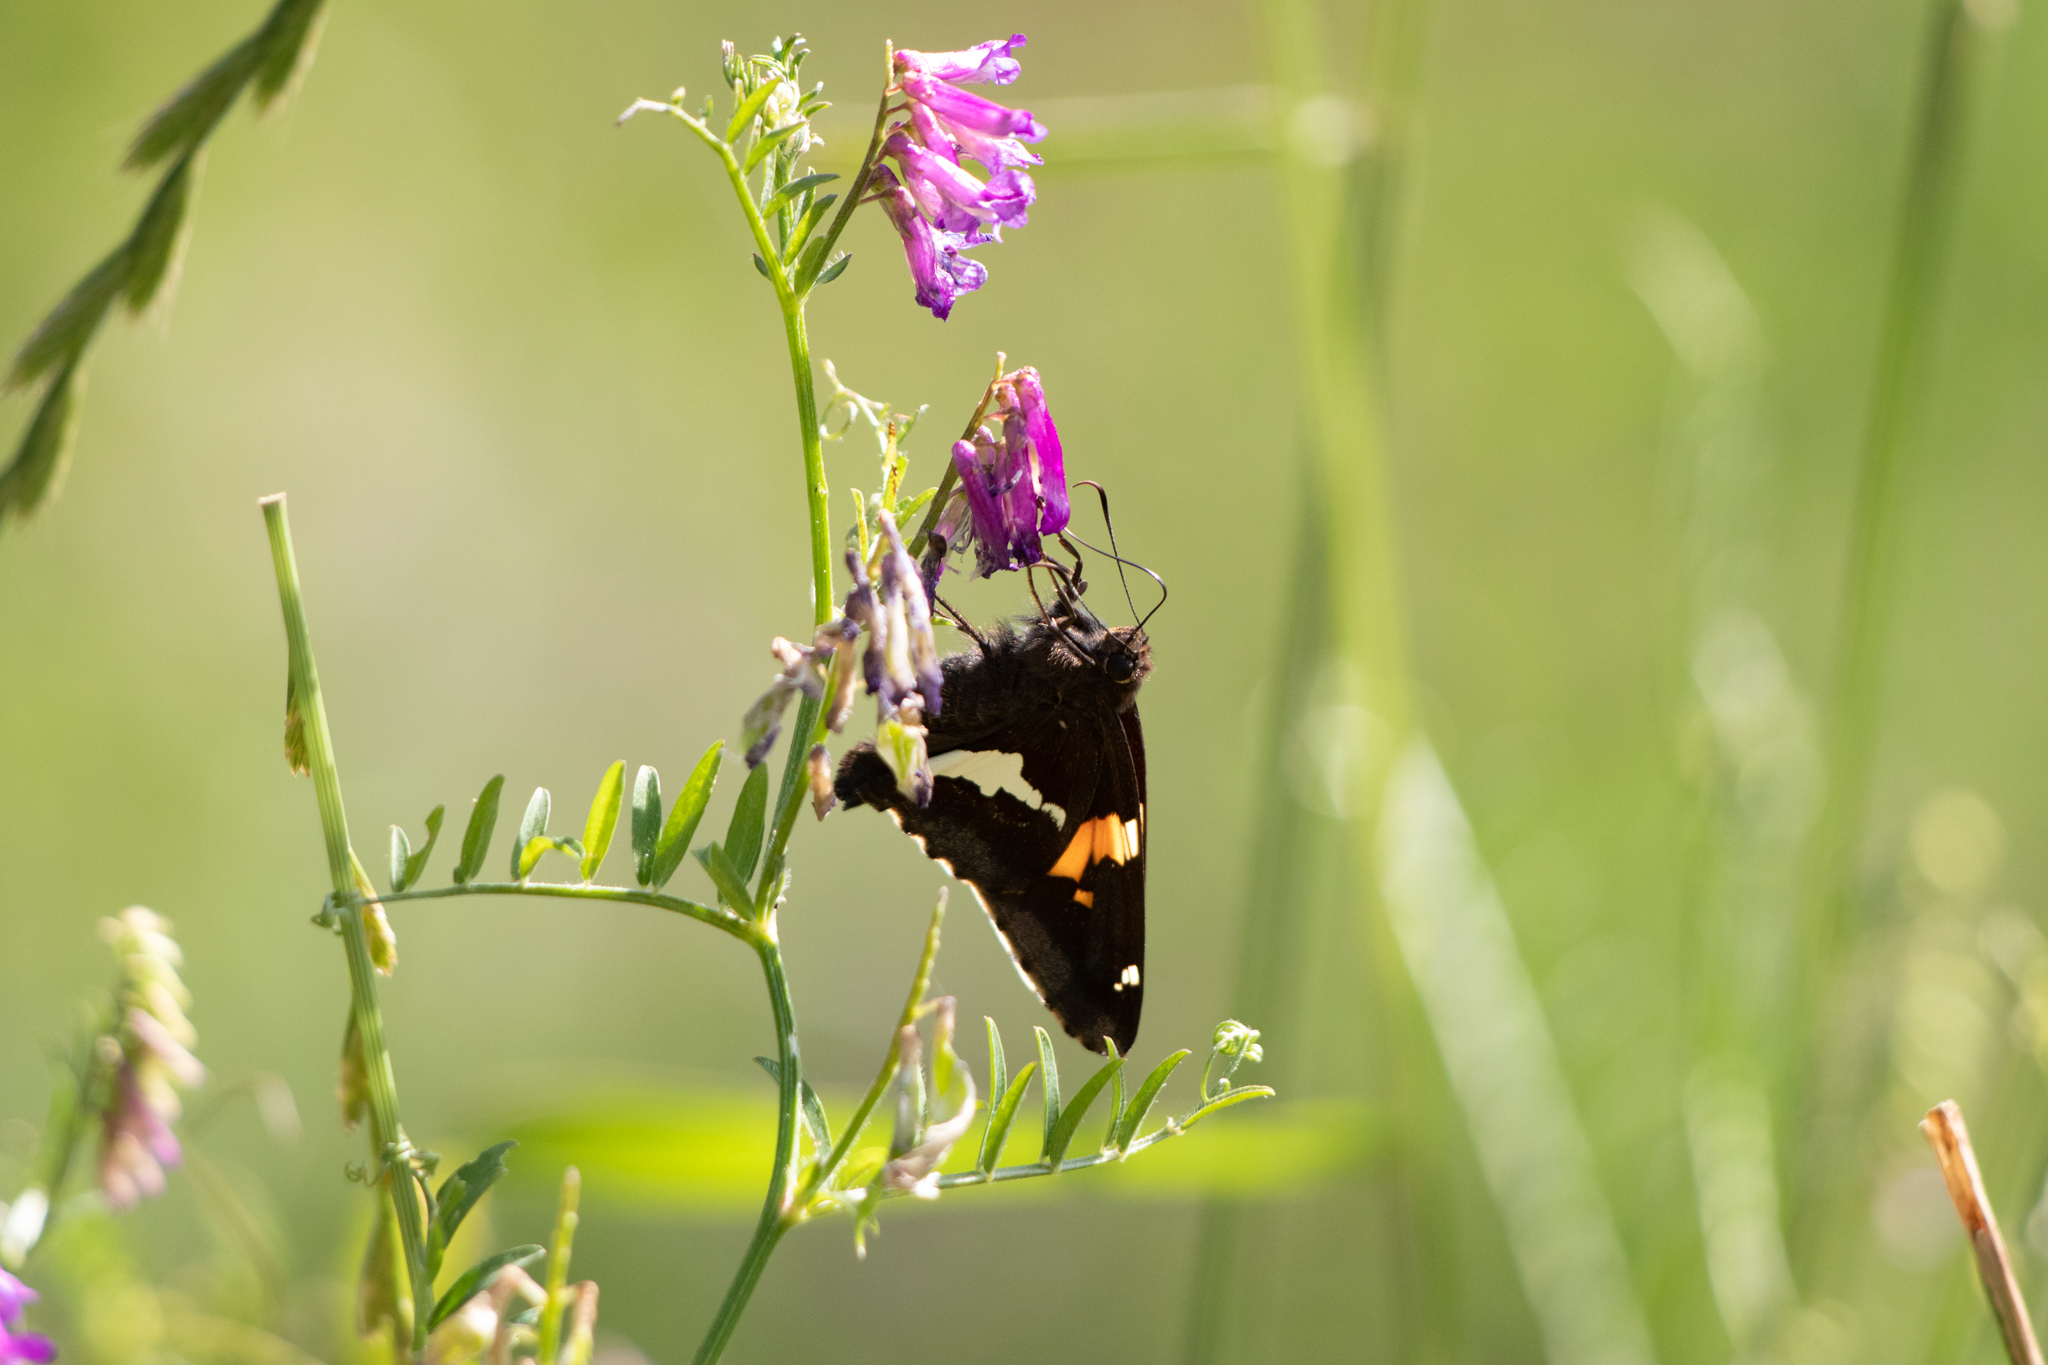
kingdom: Animalia
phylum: Arthropoda
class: Insecta
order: Lepidoptera
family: Hesperiidae
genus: Epargyreus
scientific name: Epargyreus clarus
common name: Silver-spotted skipper
